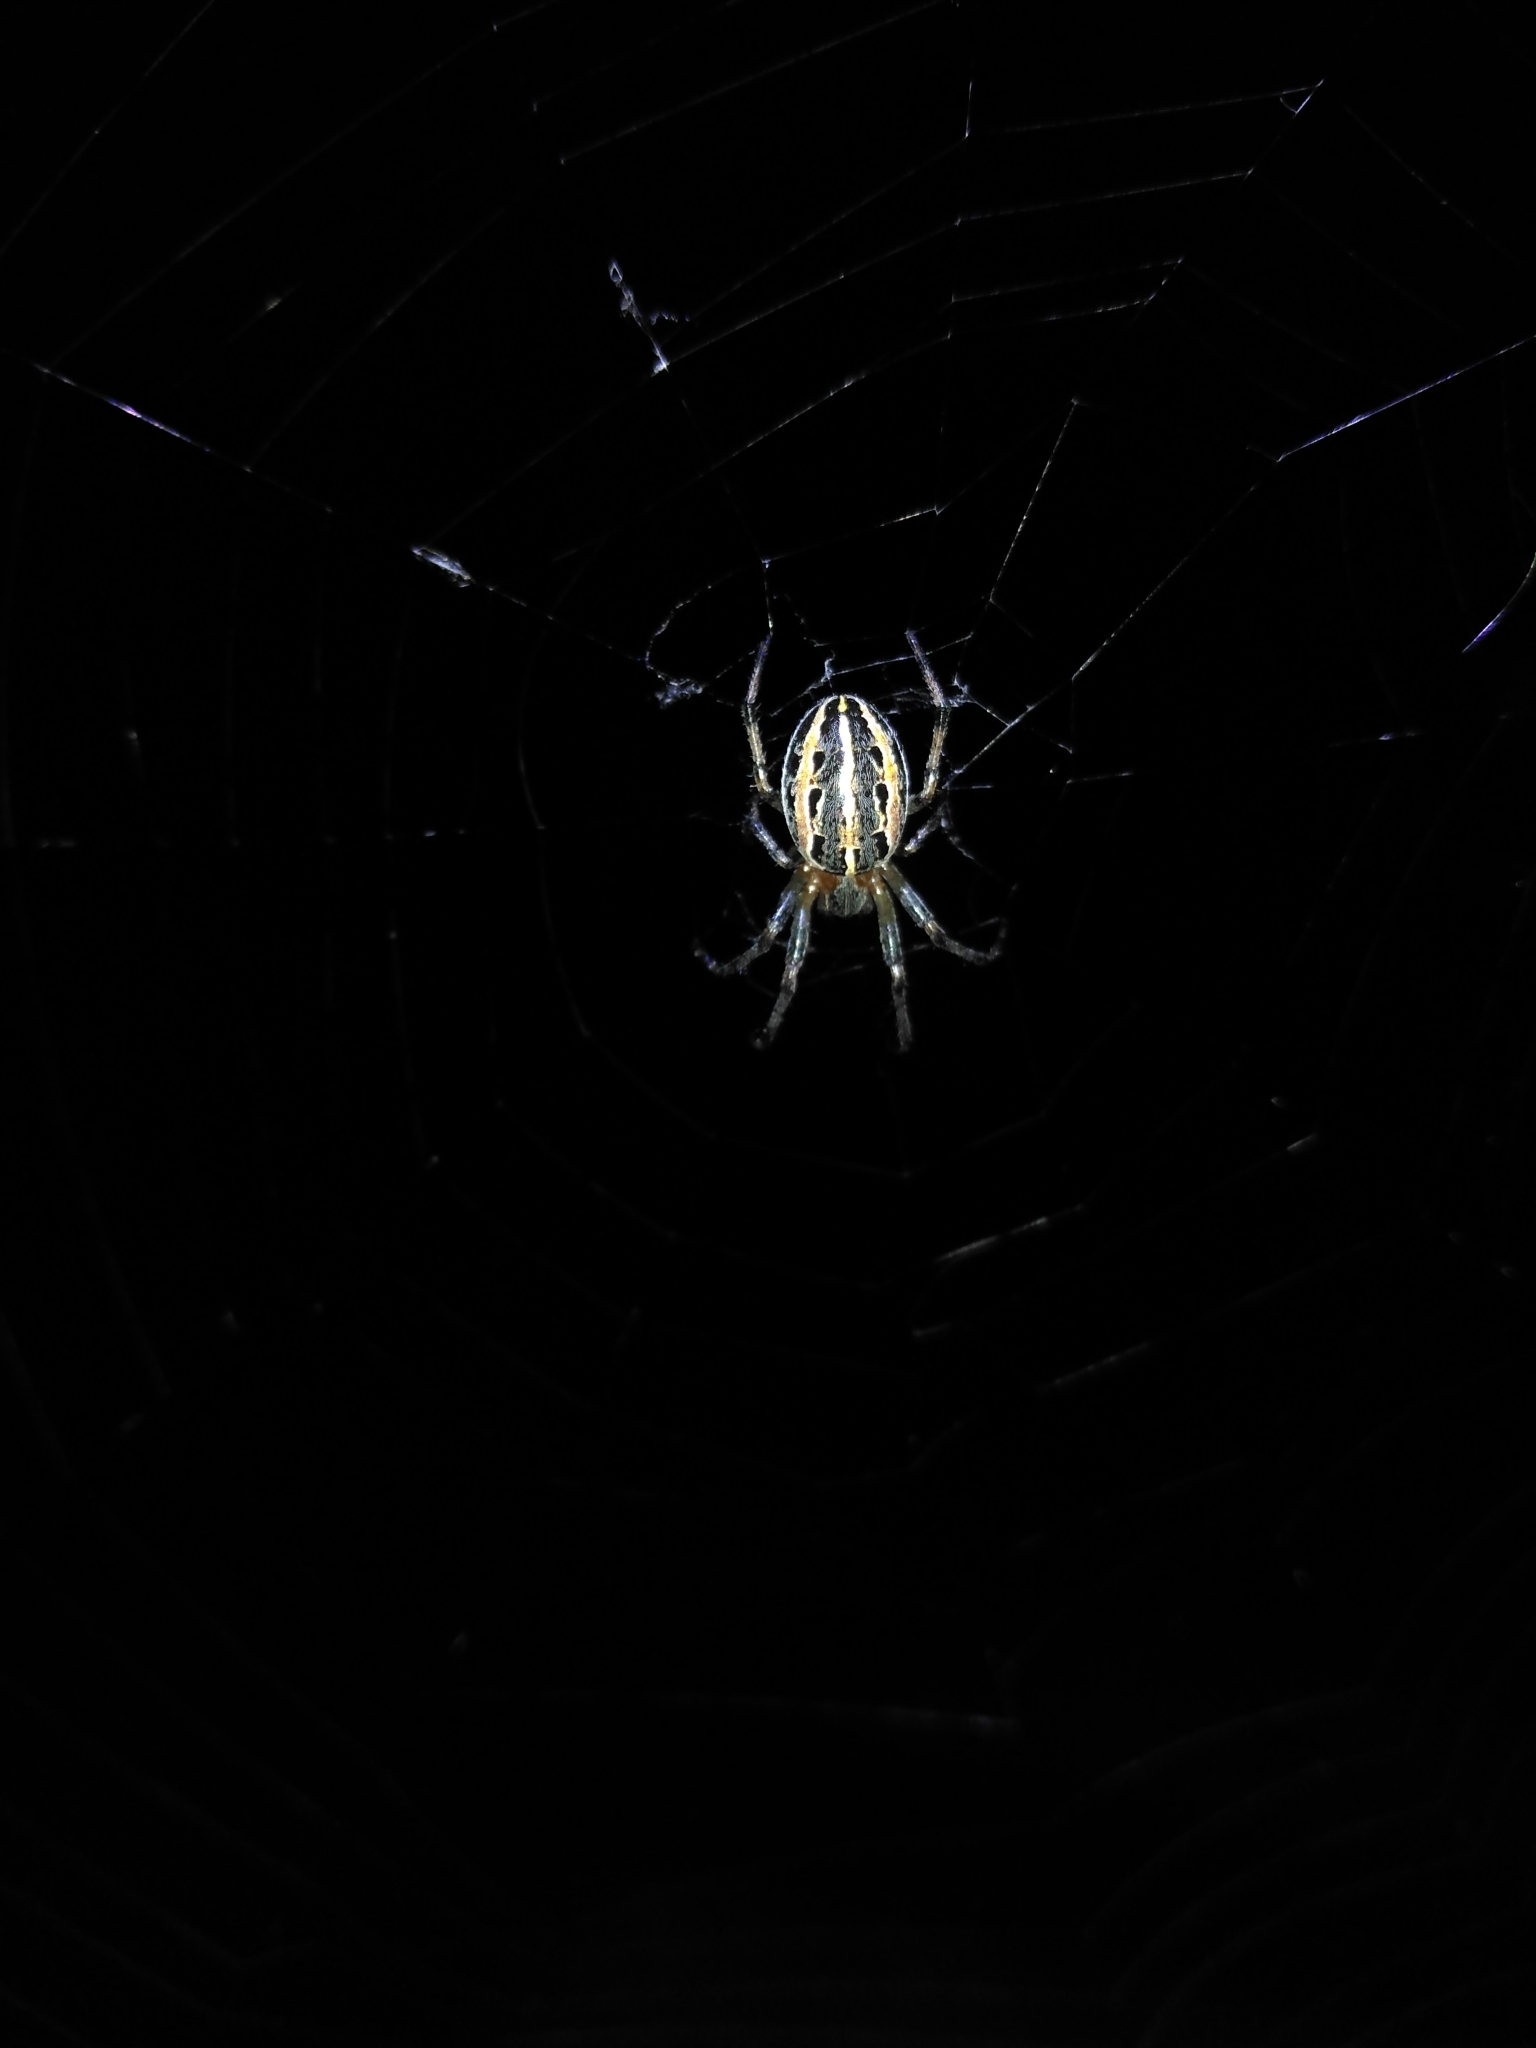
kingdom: Animalia
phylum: Arthropoda
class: Arachnida
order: Araneae
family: Araneidae
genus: Alpaida
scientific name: Alpaida veniliae
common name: Orb weavers
